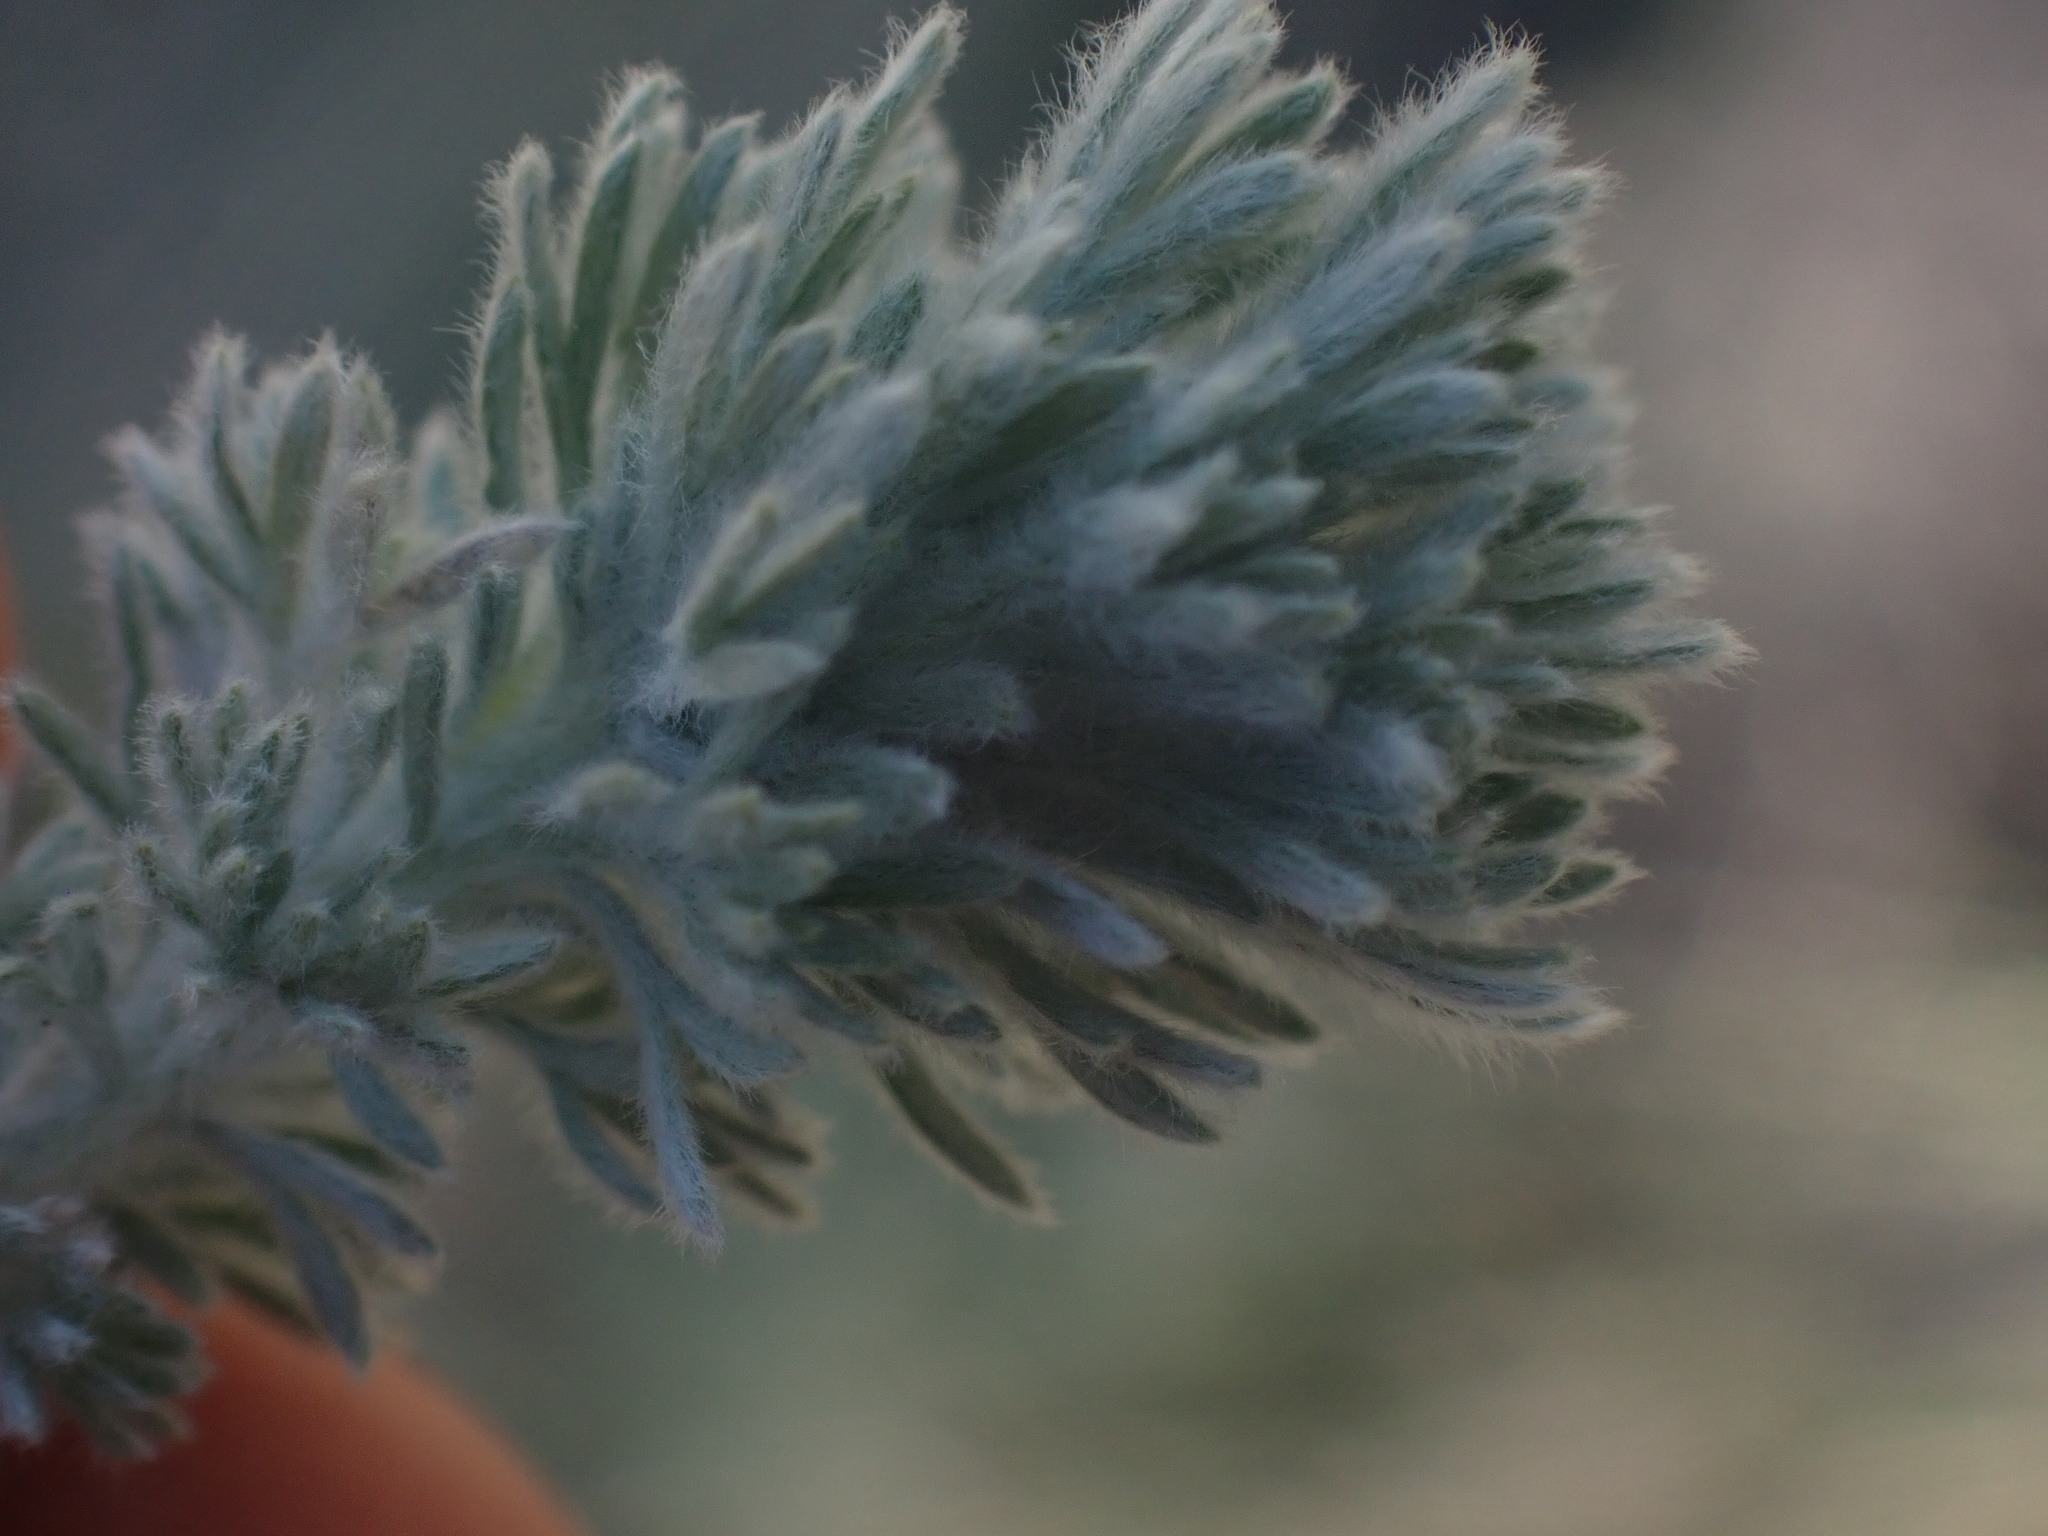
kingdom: Plantae
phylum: Tracheophyta
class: Magnoliopsida
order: Asterales
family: Asteraceae
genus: Artemisia
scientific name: Artemisia frigida
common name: Prairie sagewort
